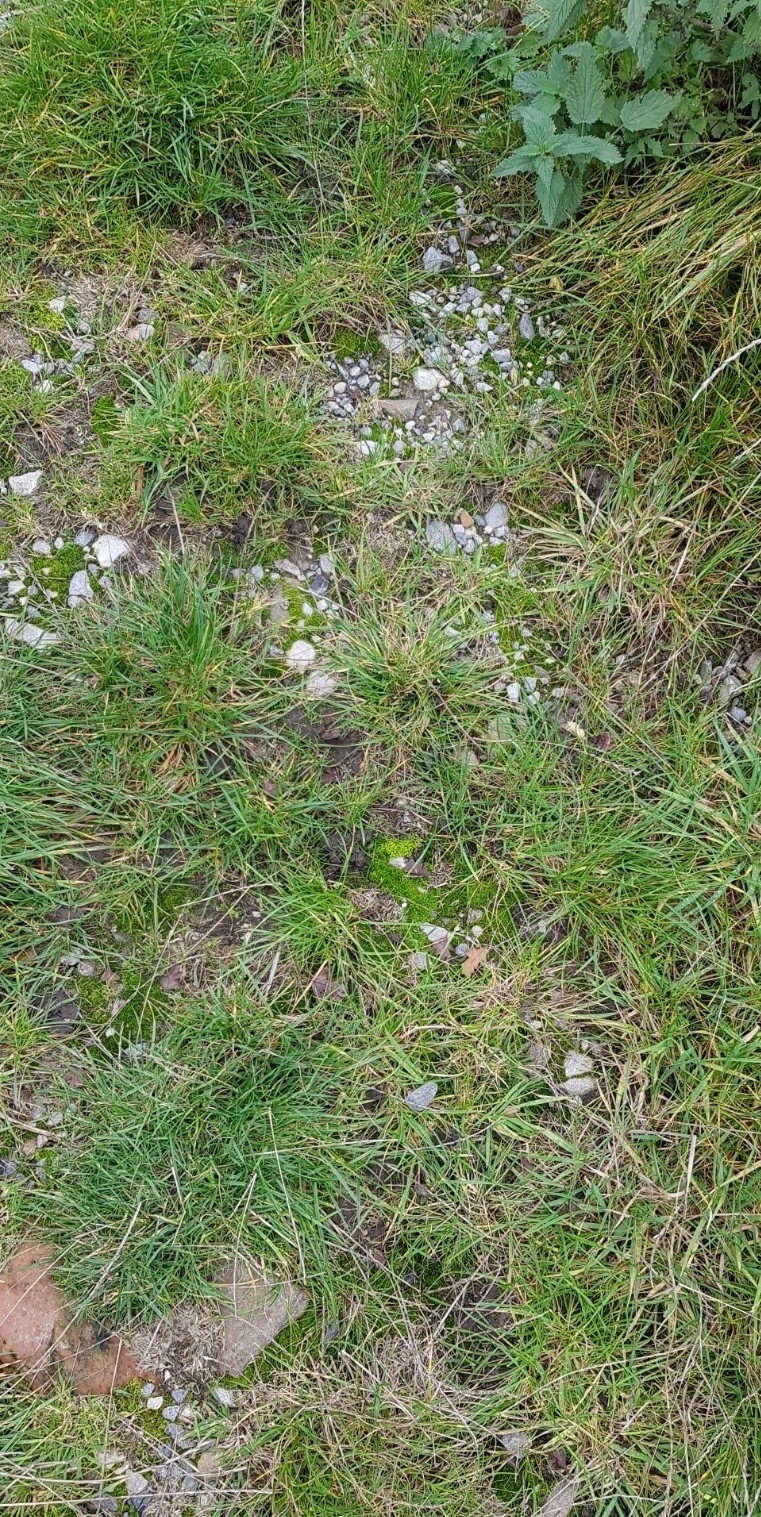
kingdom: Plantae
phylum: Bryophyta
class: Bryopsida
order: Funariales
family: Funariaceae
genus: Funaria
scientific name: Funaria hygrometrica
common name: Common cord moss
